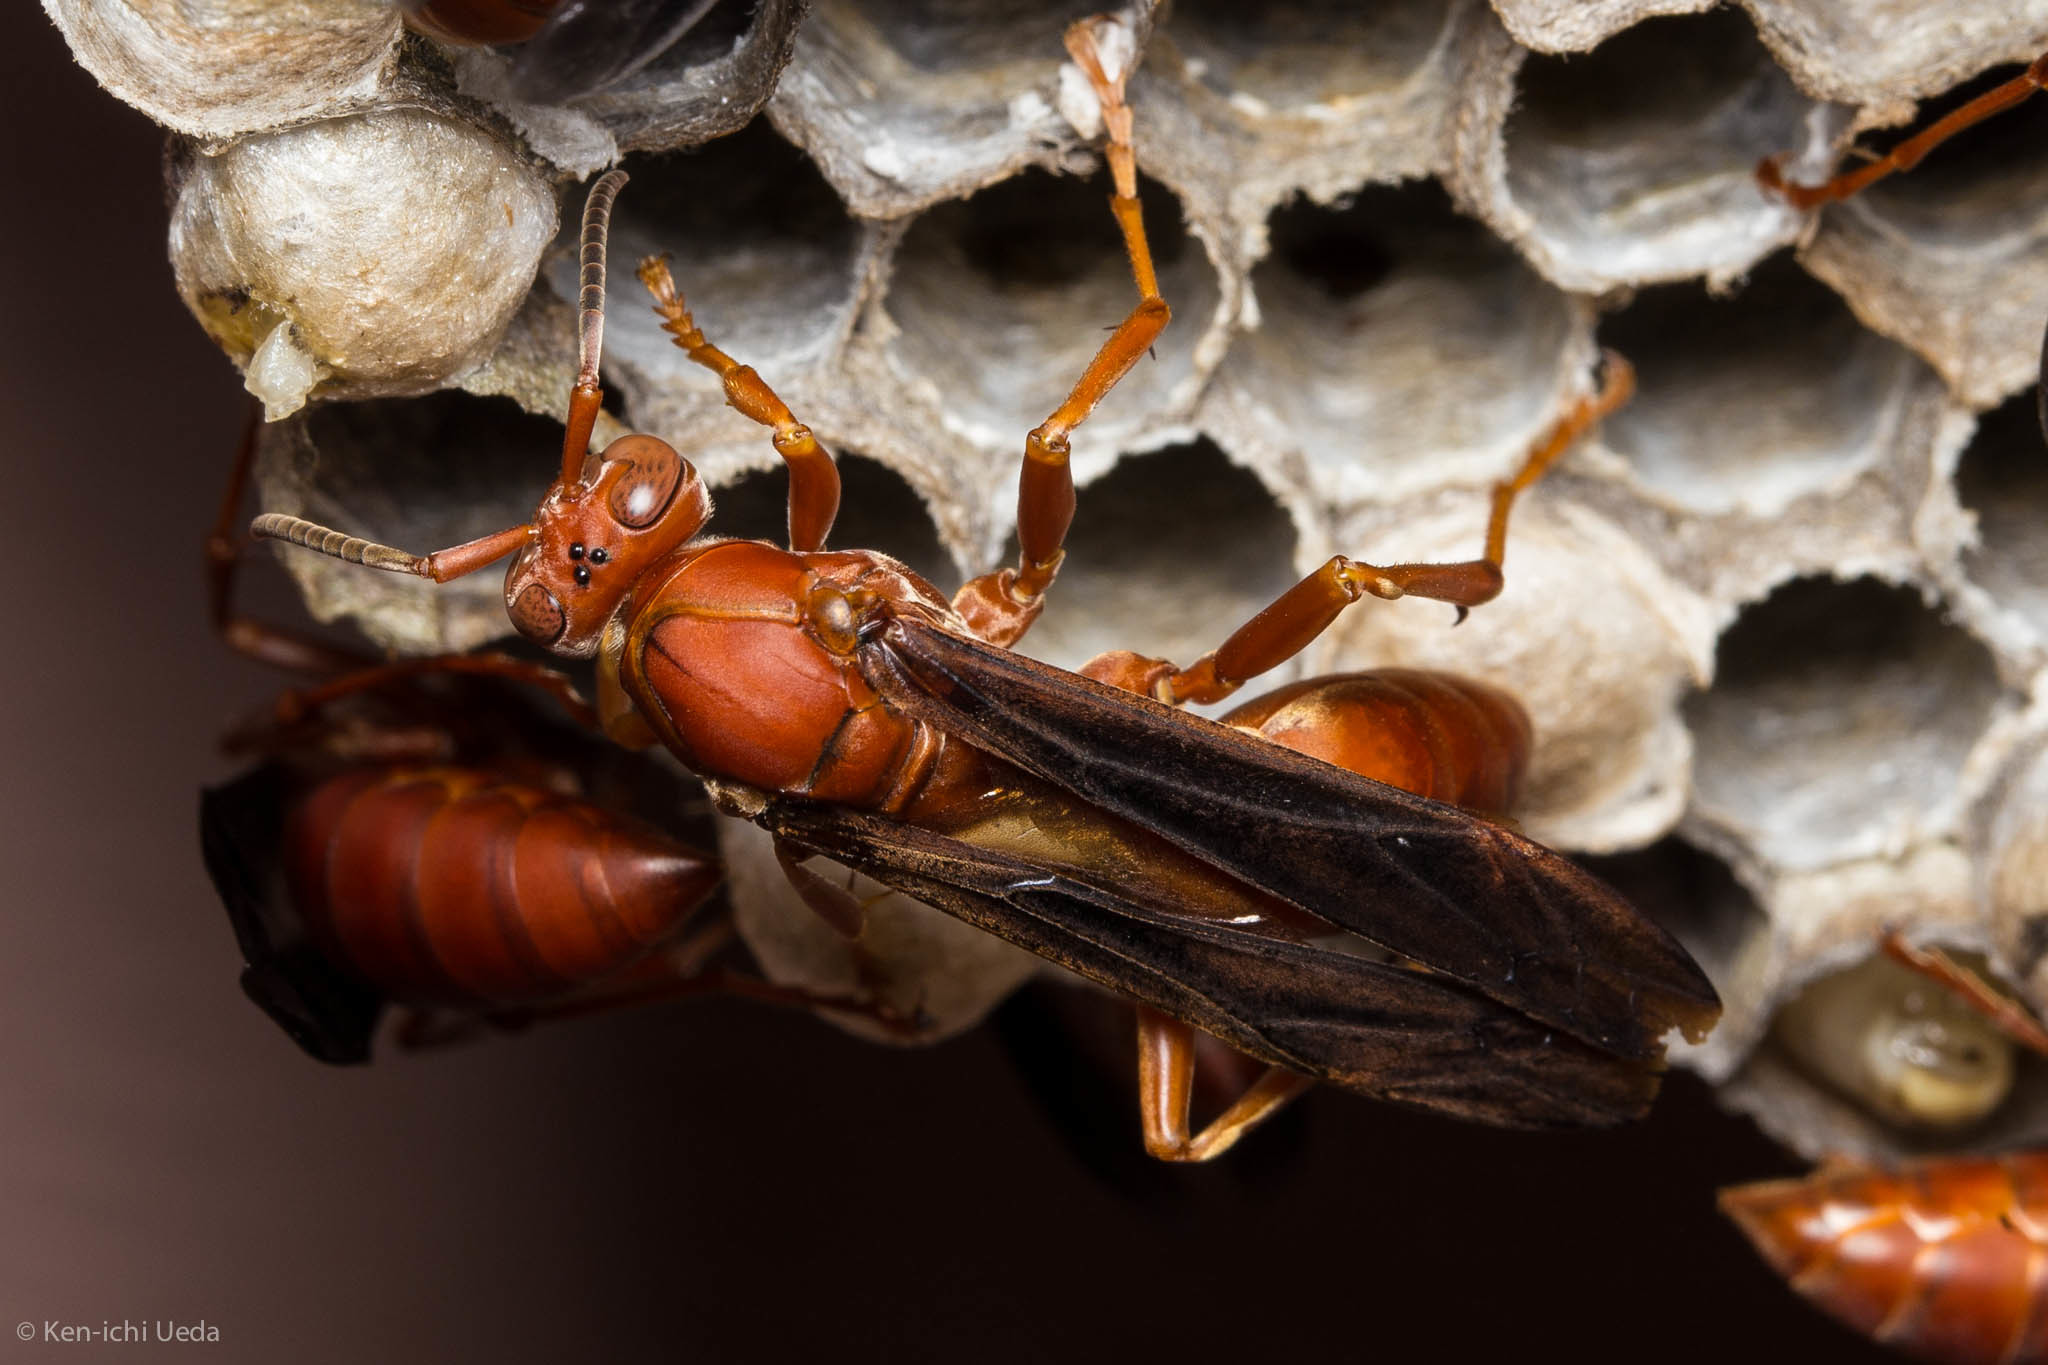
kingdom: Animalia
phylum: Arthropoda
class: Insecta
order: Hymenoptera
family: Eumenidae
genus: Polistes
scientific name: Polistes carolina
